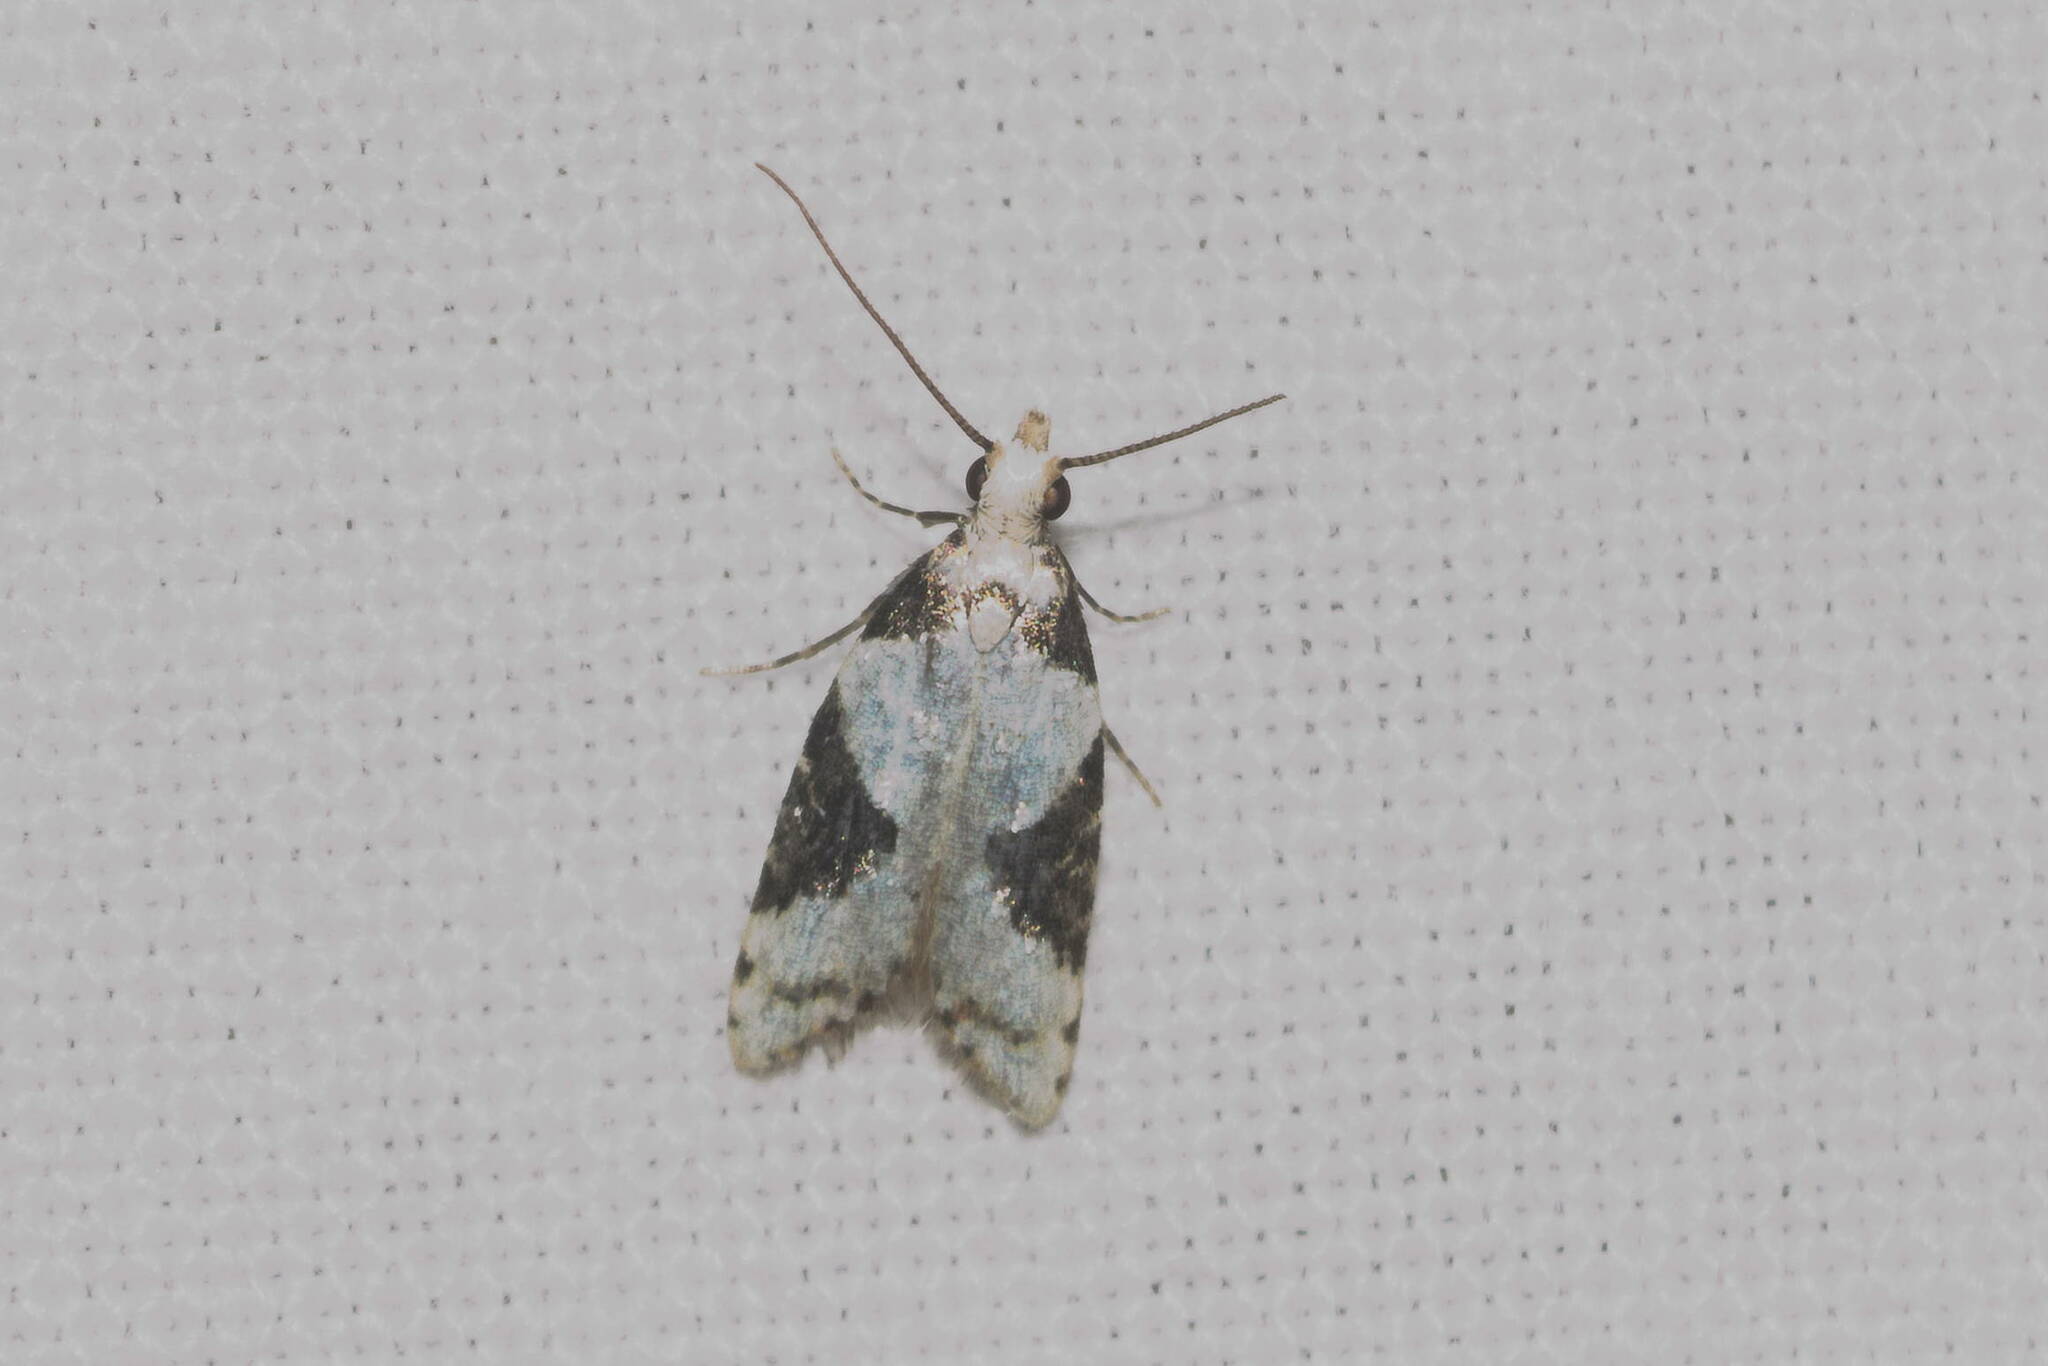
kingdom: Animalia
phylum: Arthropoda
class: Insecta
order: Lepidoptera
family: Carposinidae
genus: Carposina
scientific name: Carposina inscripta
